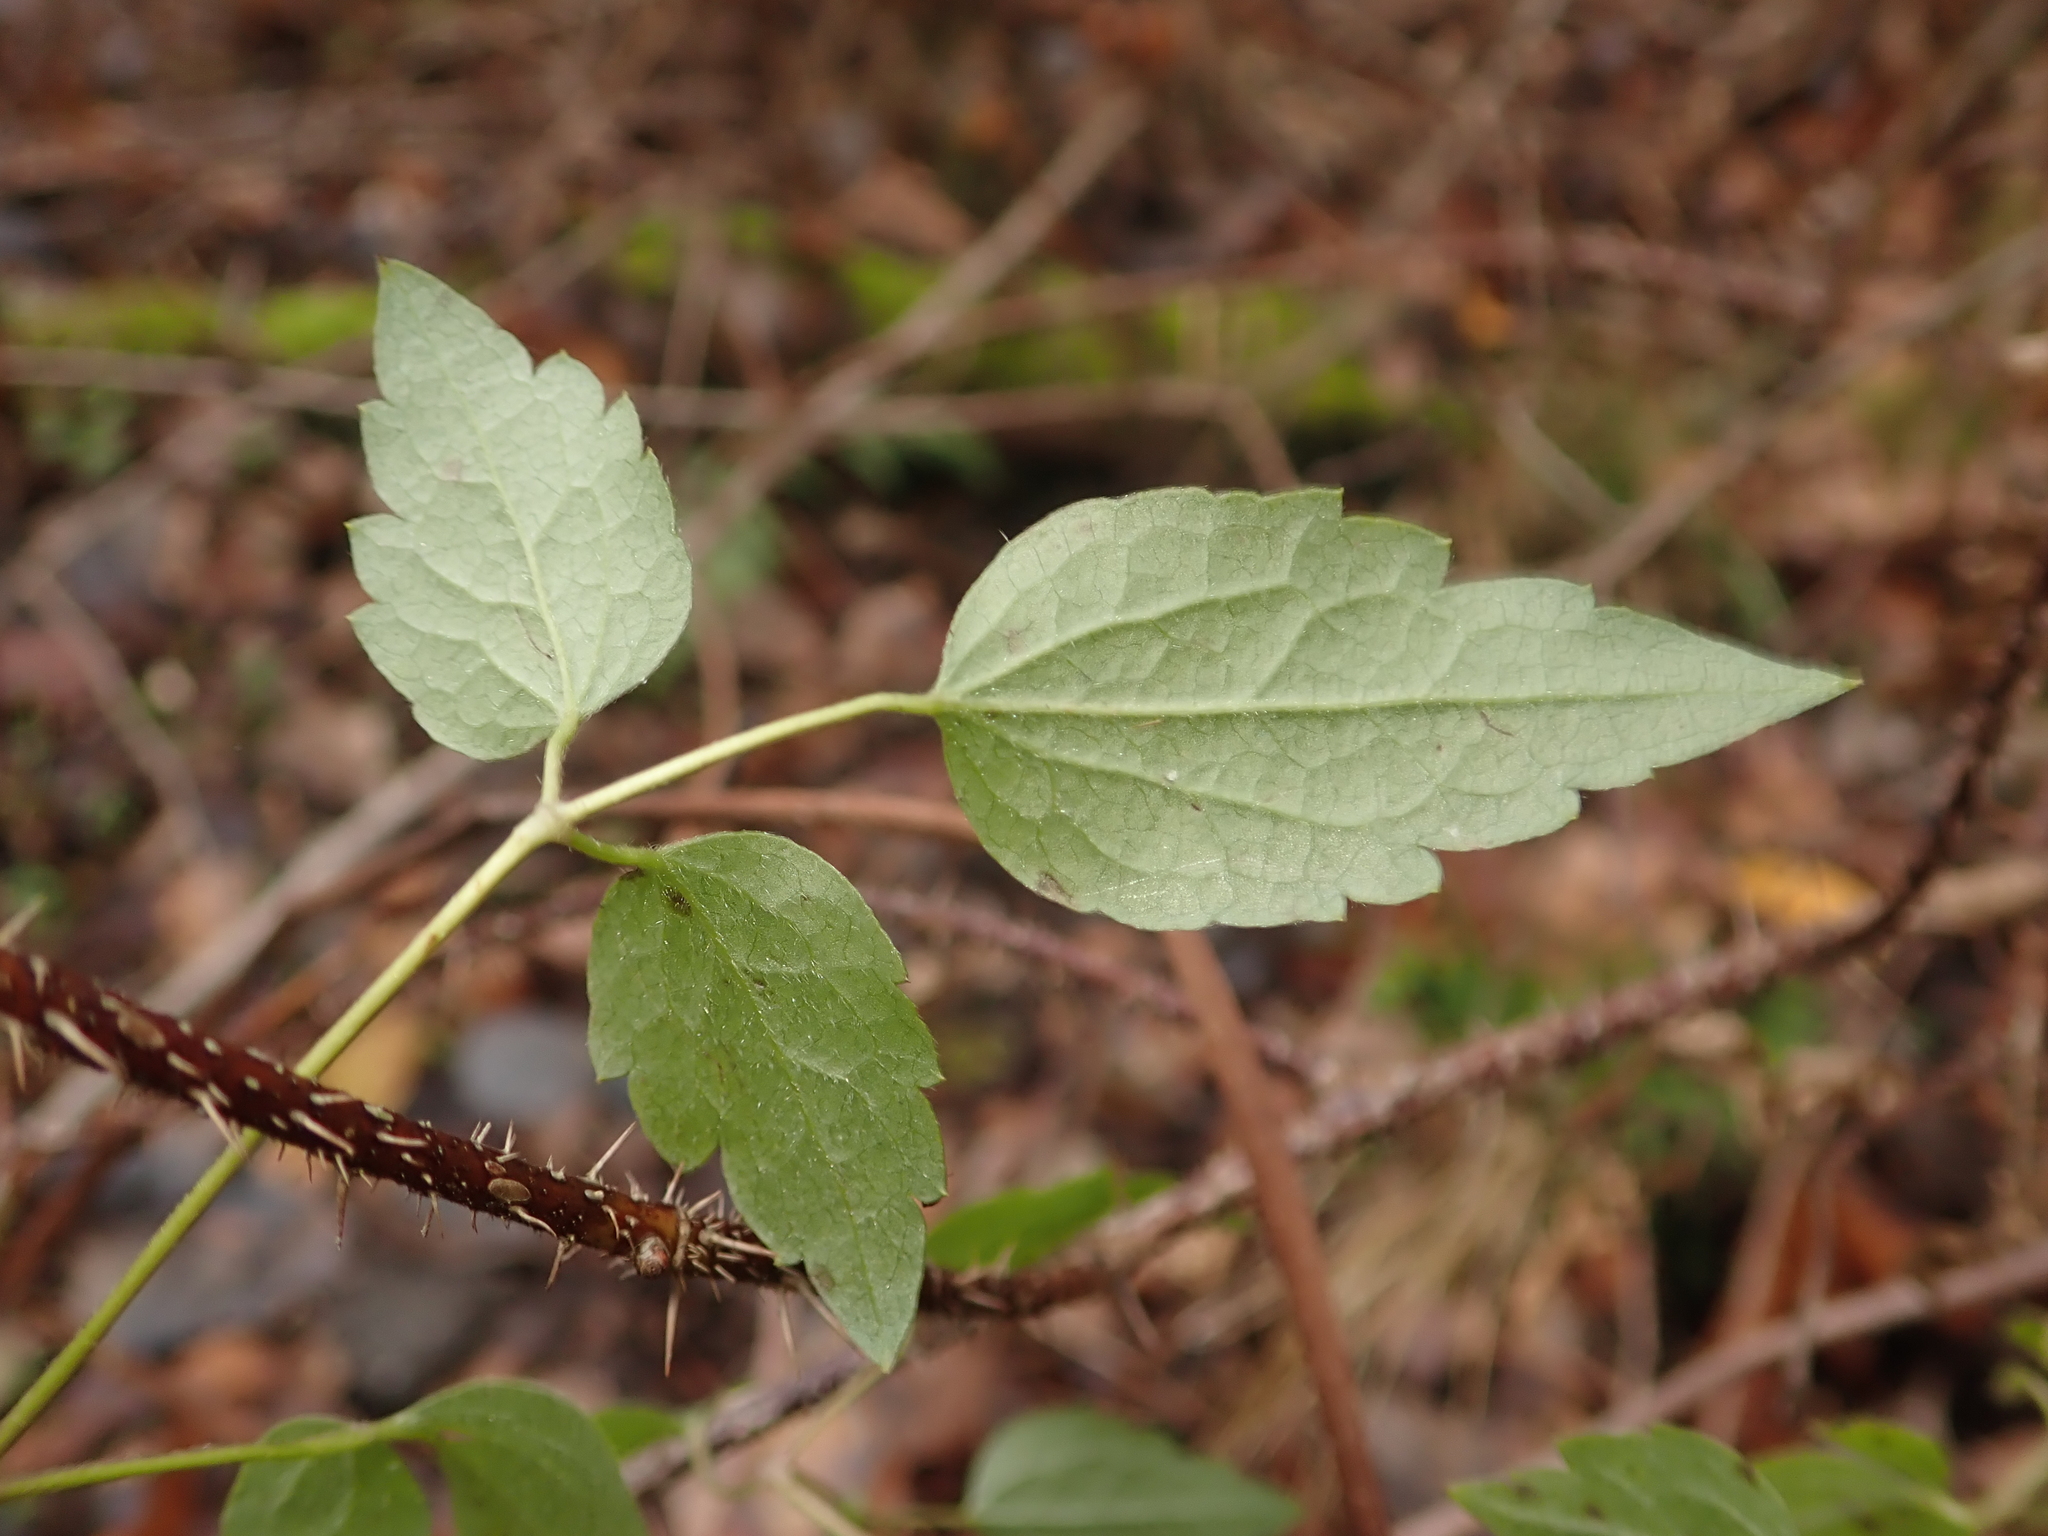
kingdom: Plantae
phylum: Tracheophyta
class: Magnoliopsida
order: Ranunculales
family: Ranunculaceae
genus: Clematis
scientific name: Clematis vitalba
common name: Evergreen clematis
